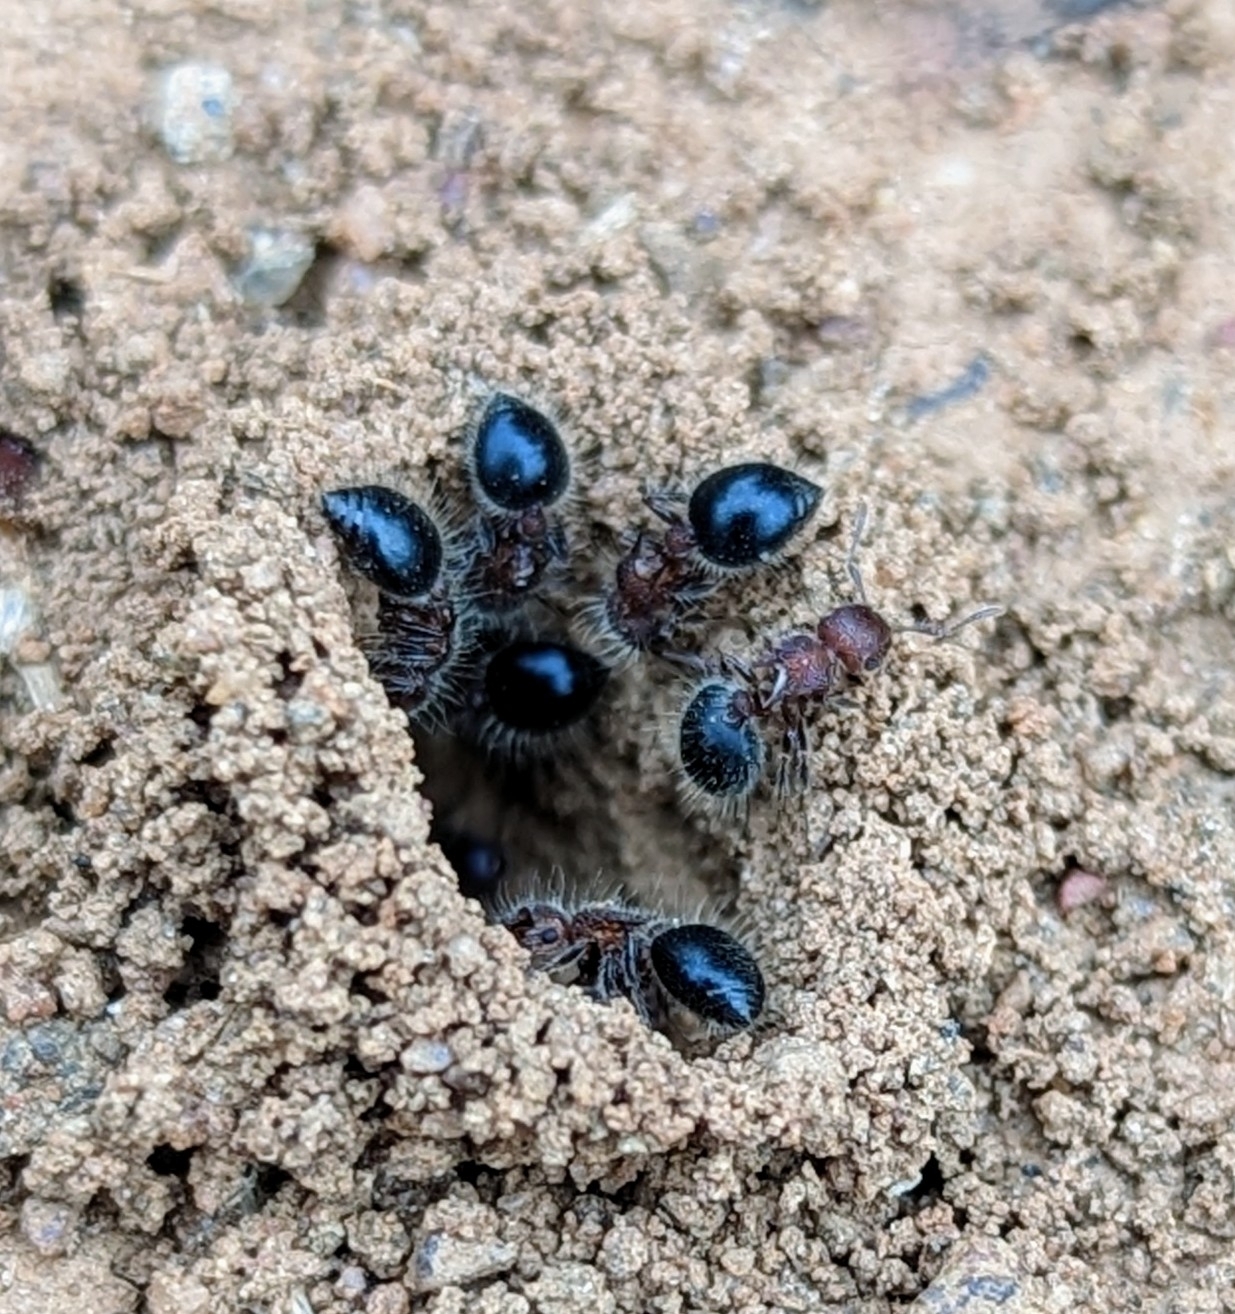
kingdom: Animalia
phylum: Arthropoda
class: Insecta
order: Hymenoptera
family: Formicidae
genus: Meranoplus
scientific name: Meranoplus bicolor
